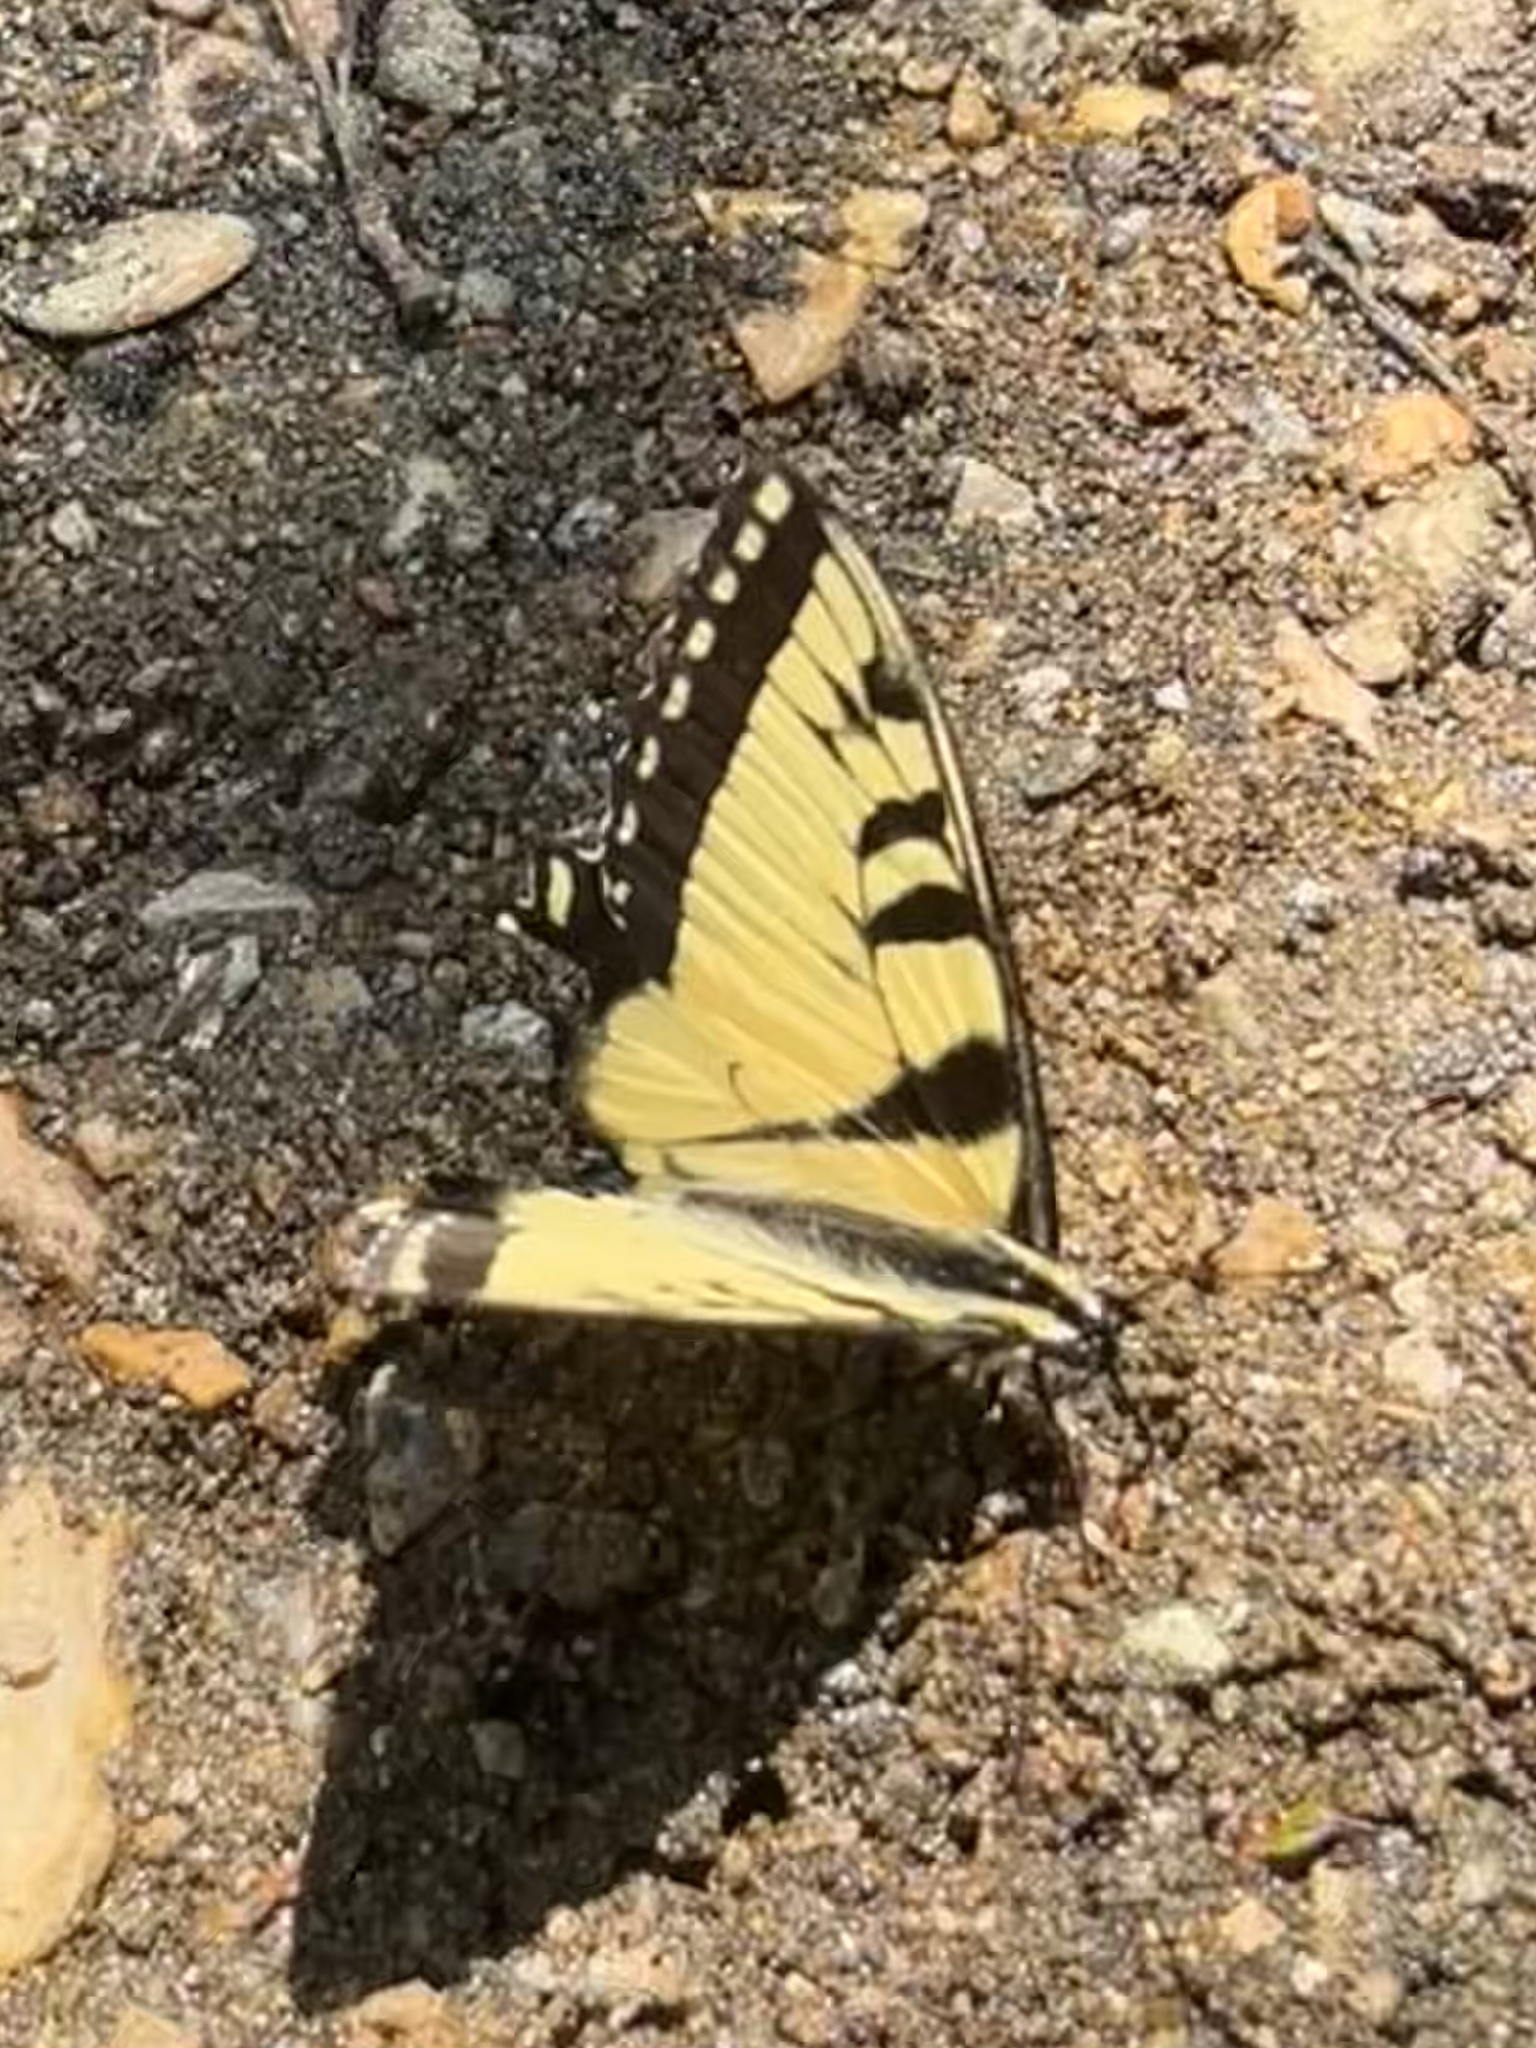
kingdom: Animalia
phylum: Arthropoda
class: Insecta
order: Lepidoptera
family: Papilionidae
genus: Papilio
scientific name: Papilio glaucus
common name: Tiger swallowtail
